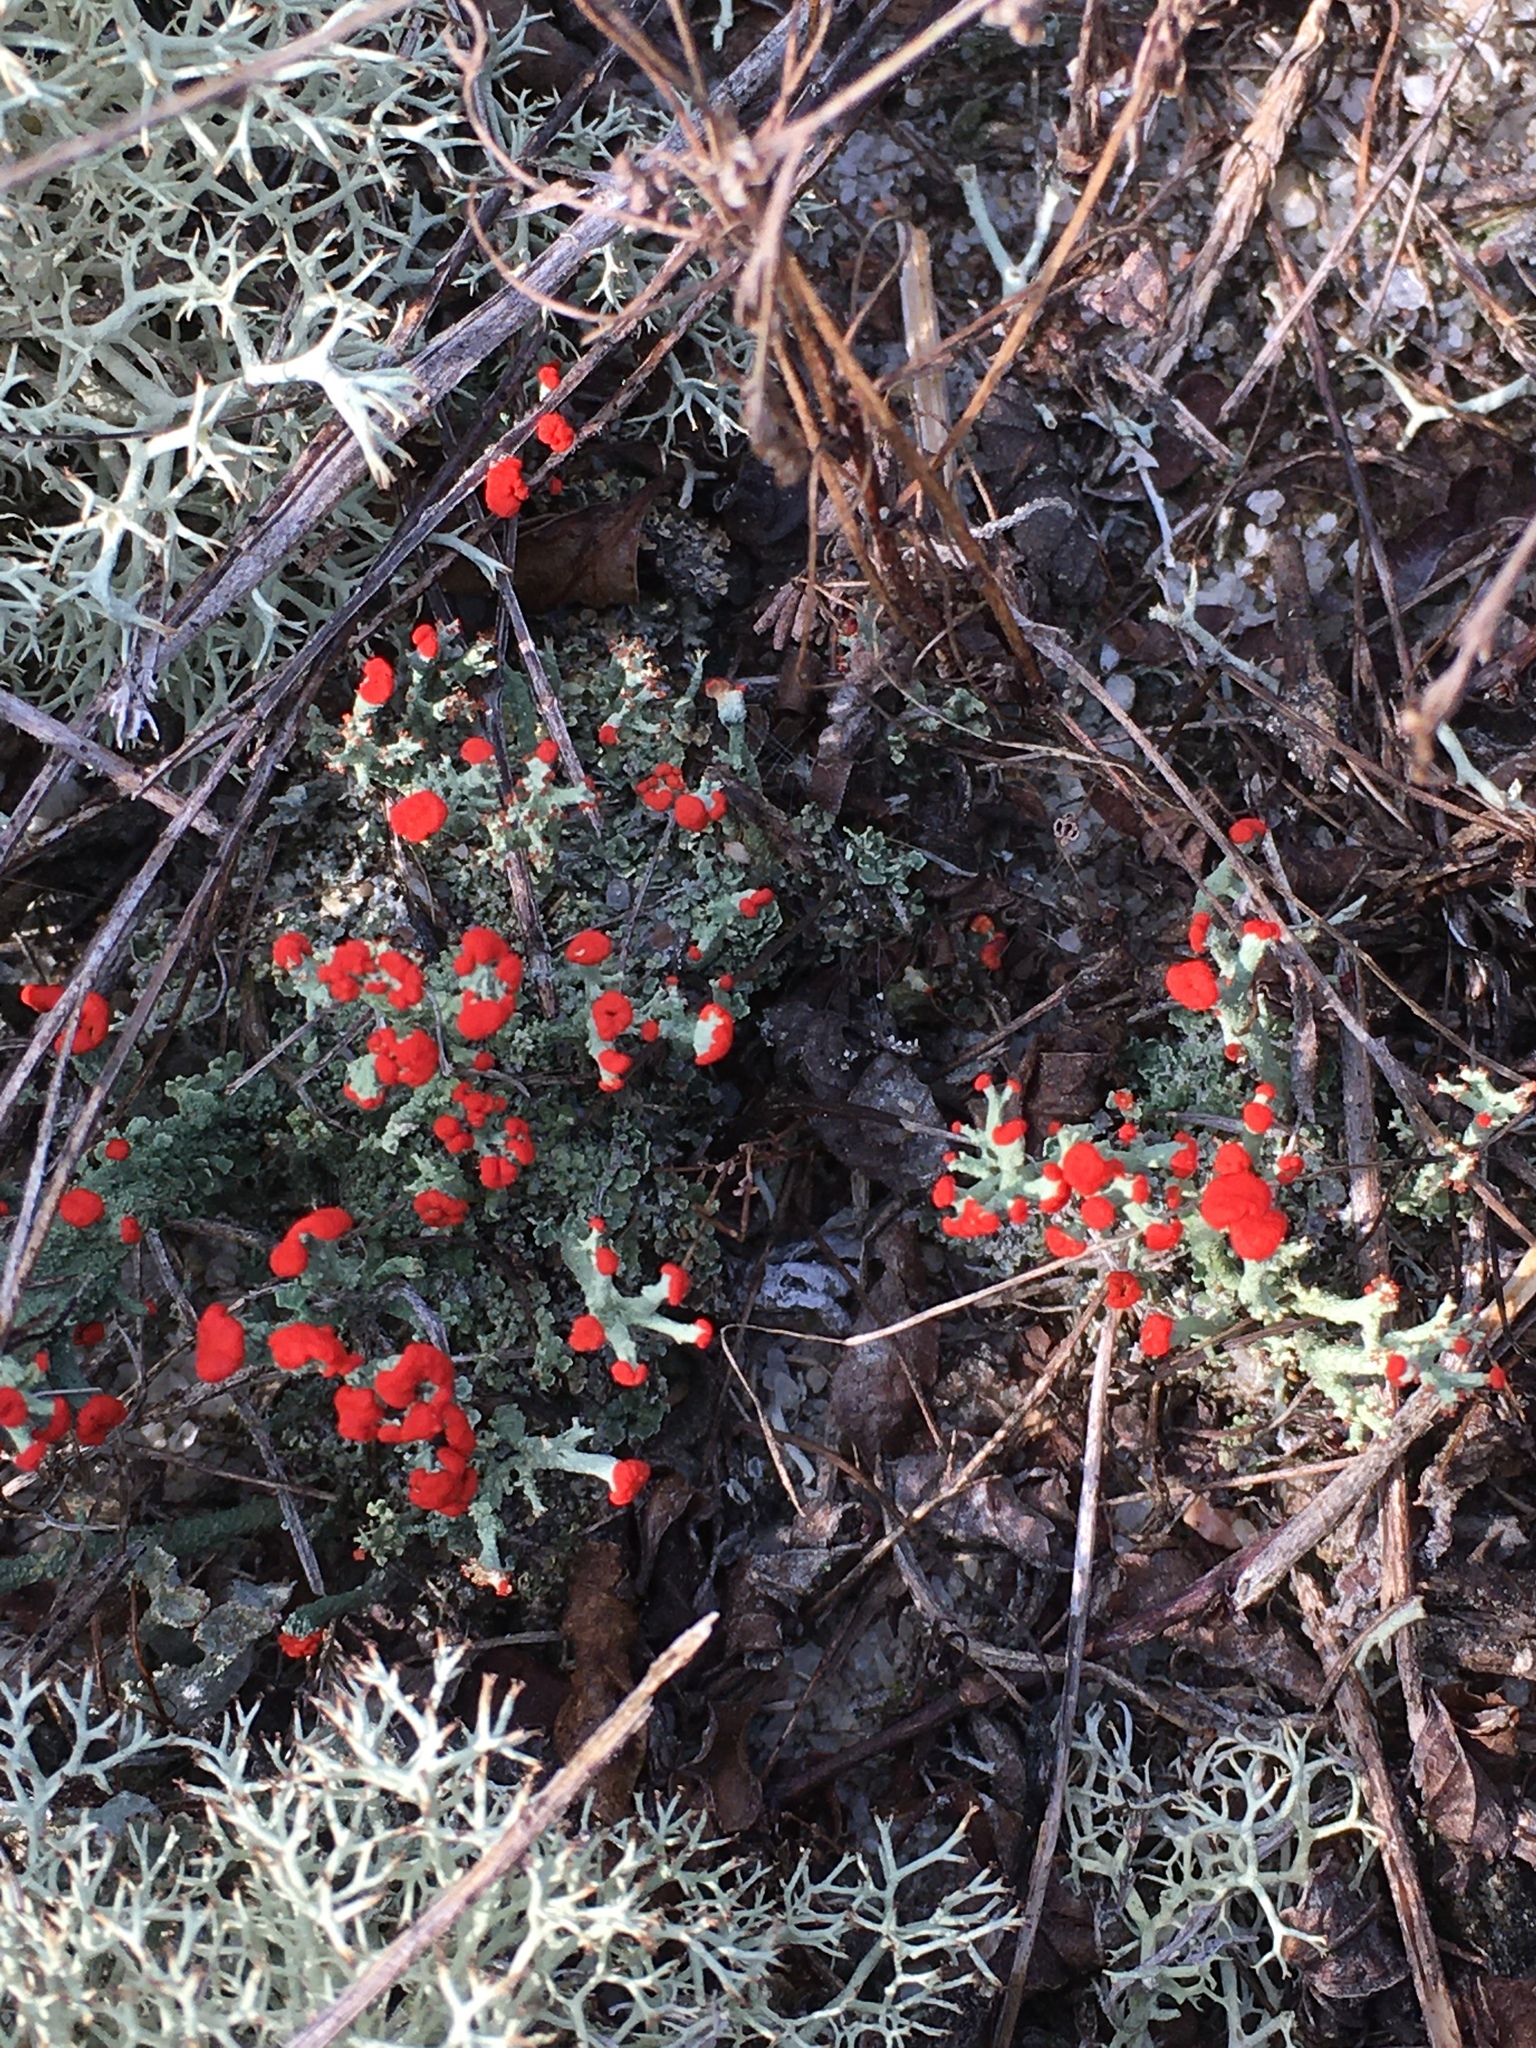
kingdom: Fungi
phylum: Ascomycota
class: Lecanoromycetes
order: Lecanorales
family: Cladoniaceae
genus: Cladonia
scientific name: Cladonia cristatella
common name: British soldier lichen
